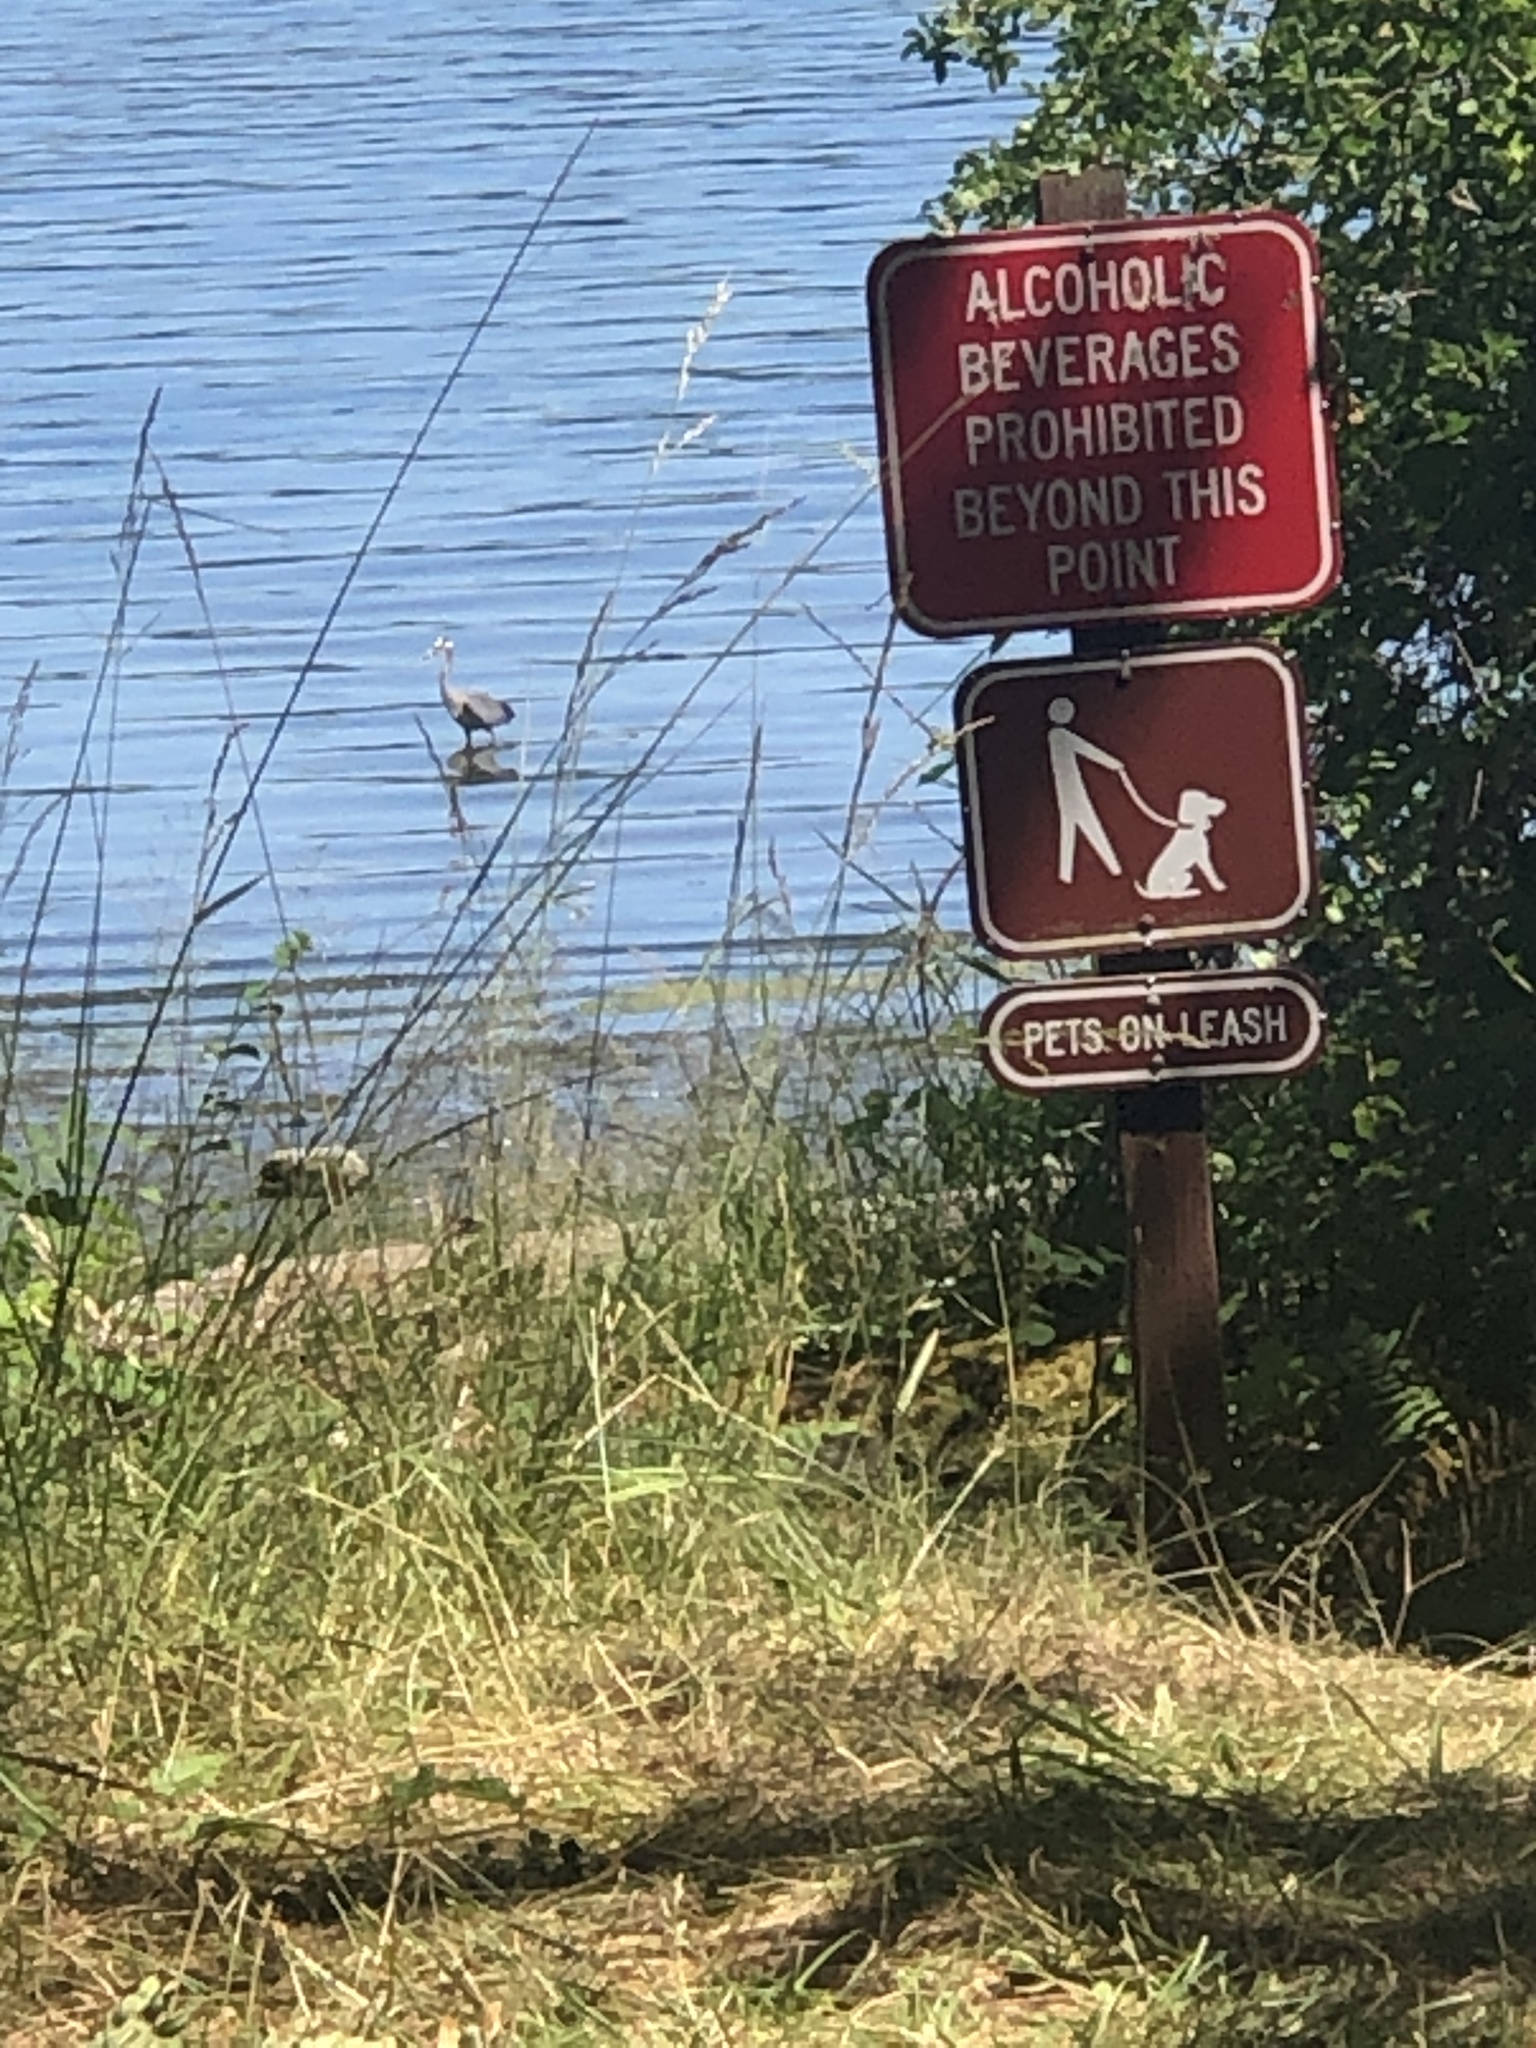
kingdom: Animalia
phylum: Chordata
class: Aves
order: Pelecaniformes
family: Ardeidae
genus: Ardea
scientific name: Ardea herodias
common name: Great blue heron
